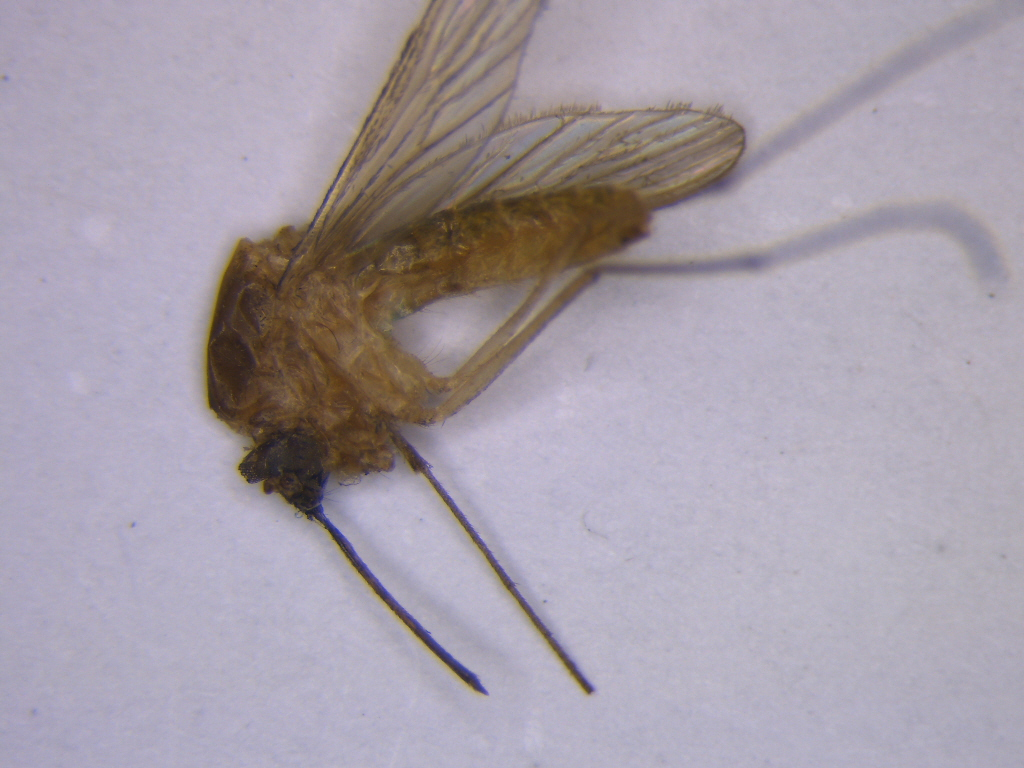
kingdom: Animalia
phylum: Arthropoda
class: Insecta
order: Diptera
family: Culicidae
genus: Culex
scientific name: Culex quinquefasciatus
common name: Southern house mosquito
